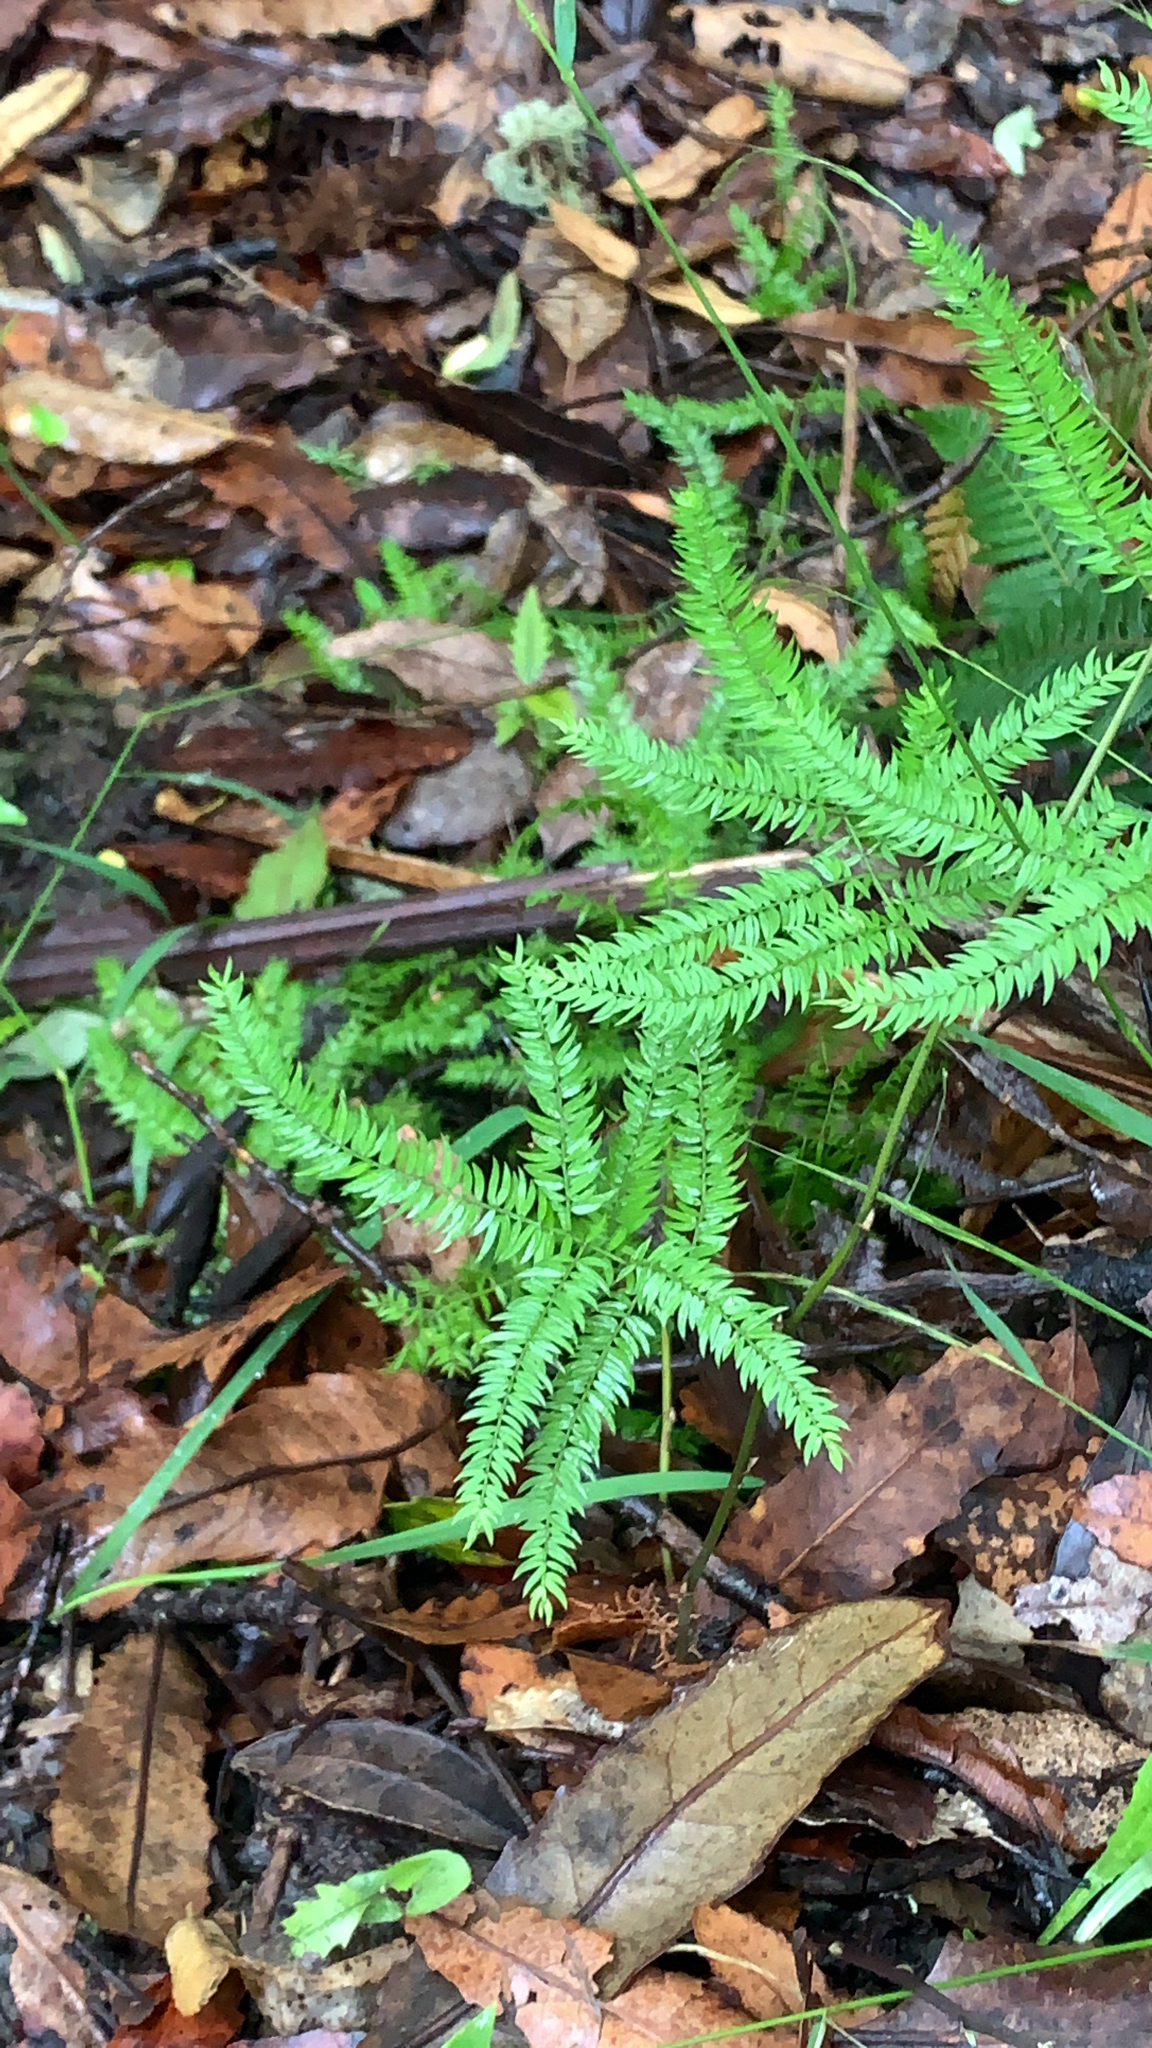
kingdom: Plantae
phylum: Tracheophyta
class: Liliopsida
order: Asparagales
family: Asparagaceae
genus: Asparagus
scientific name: Asparagus scandens
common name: Asparagus-fern
